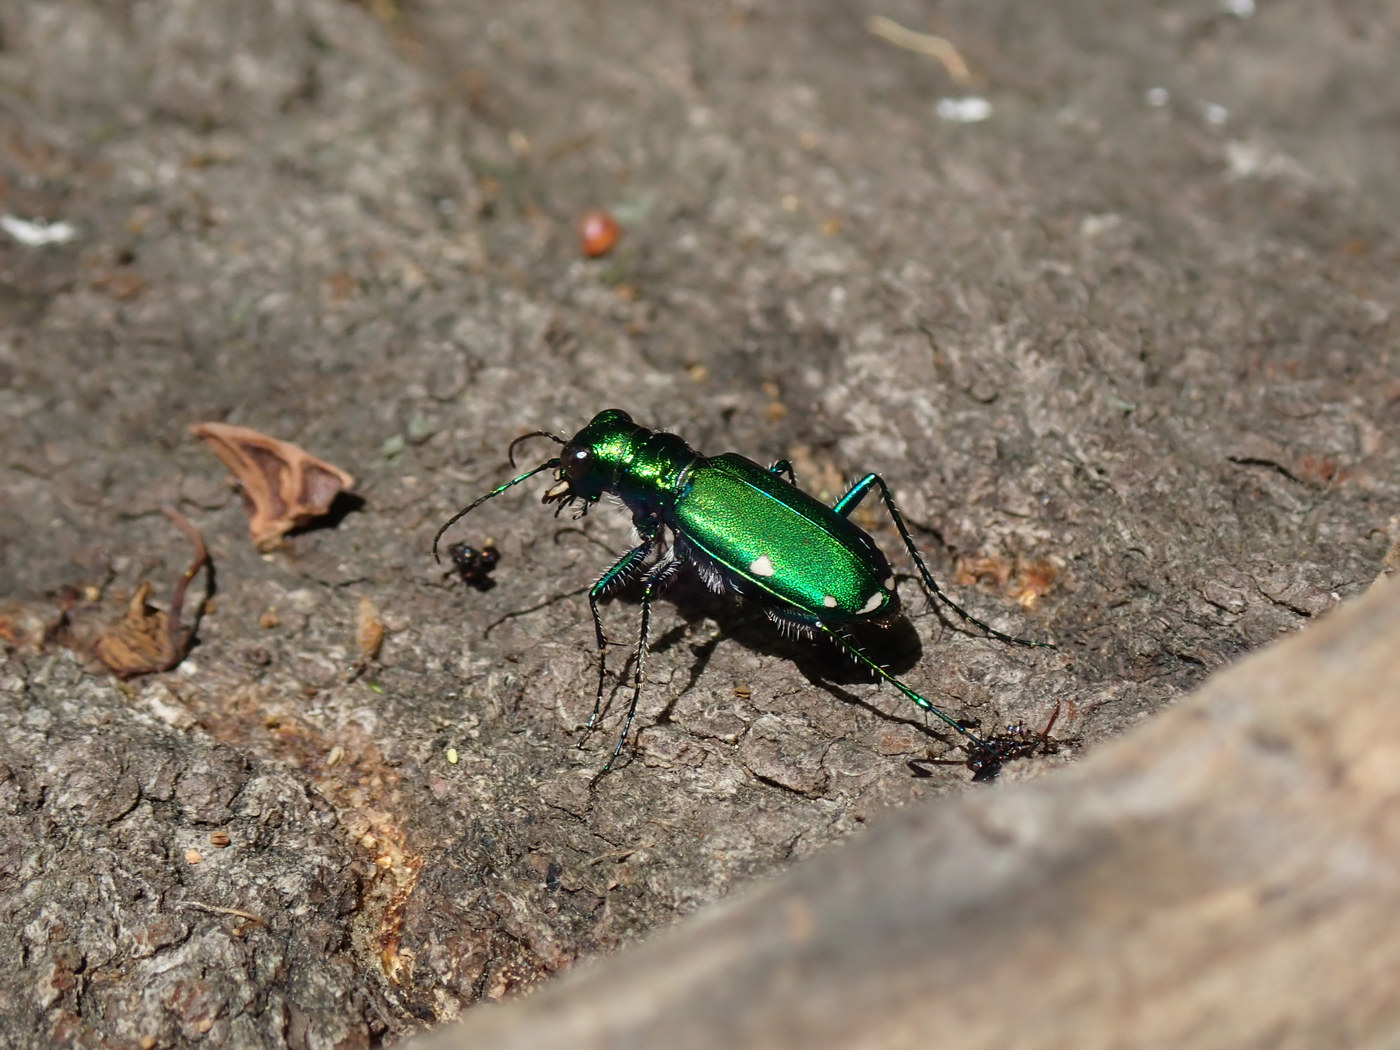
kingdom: Animalia
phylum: Arthropoda
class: Insecta
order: Coleoptera
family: Carabidae
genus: Cicindela
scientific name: Cicindela sexguttata
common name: Six-spotted tiger beetle
